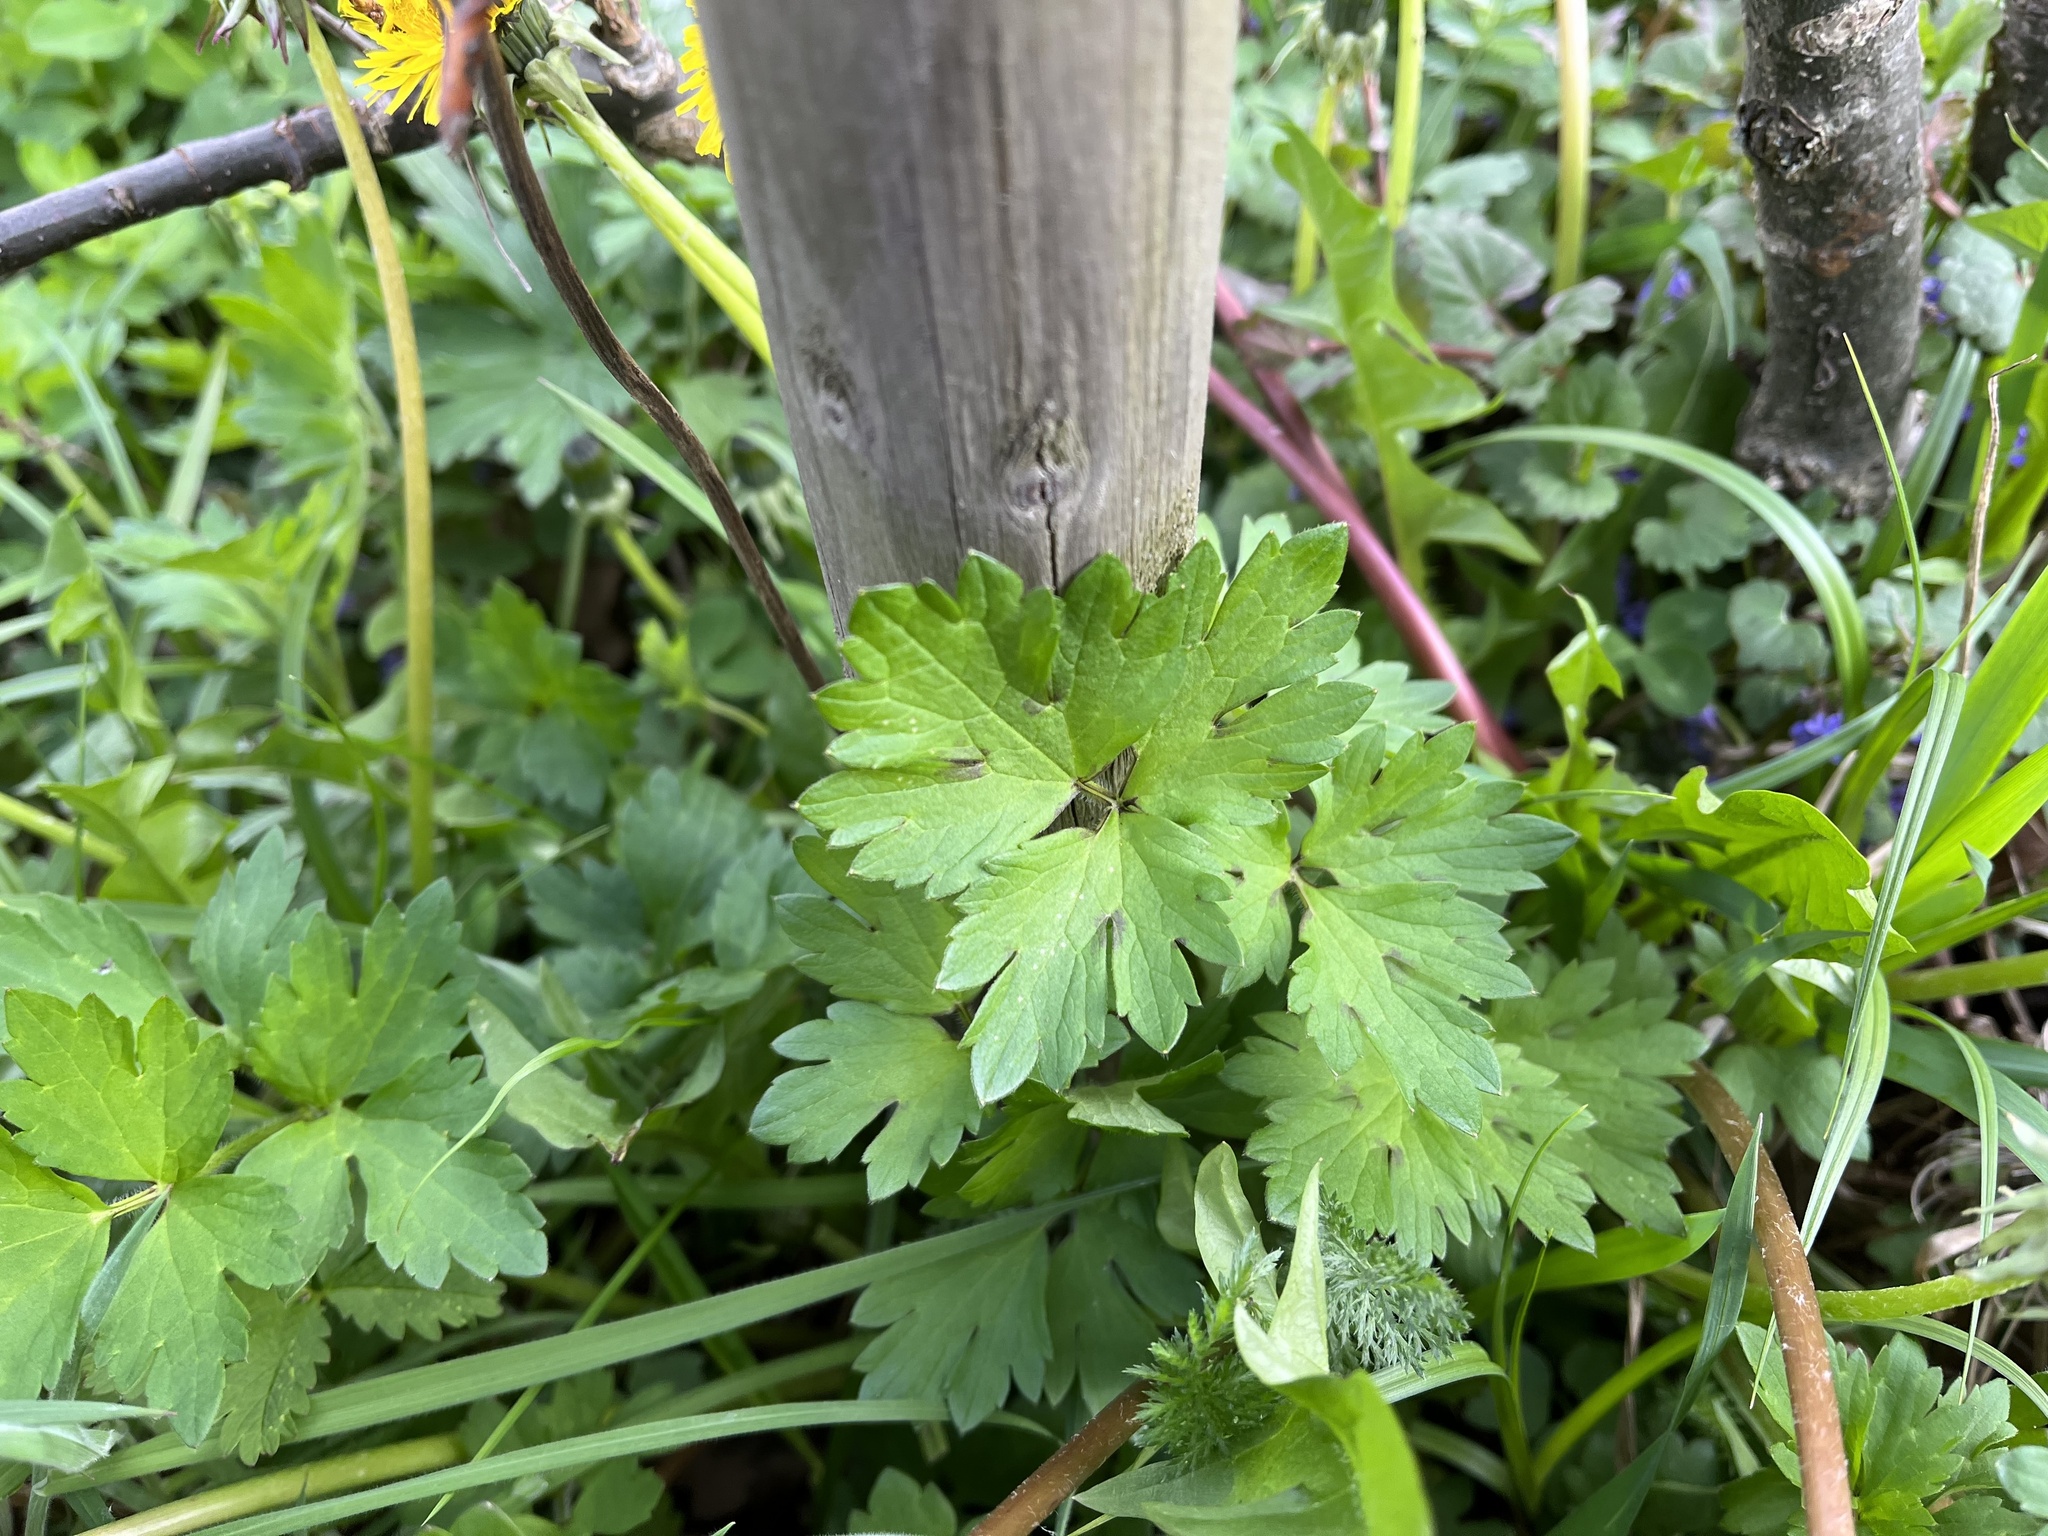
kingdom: Plantae
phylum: Tracheophyta
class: Magnoliopsida
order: Ranunculales
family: Ranunculaceae
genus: Ranunculus
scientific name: Ranunculus repens
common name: Creeping buttercup
